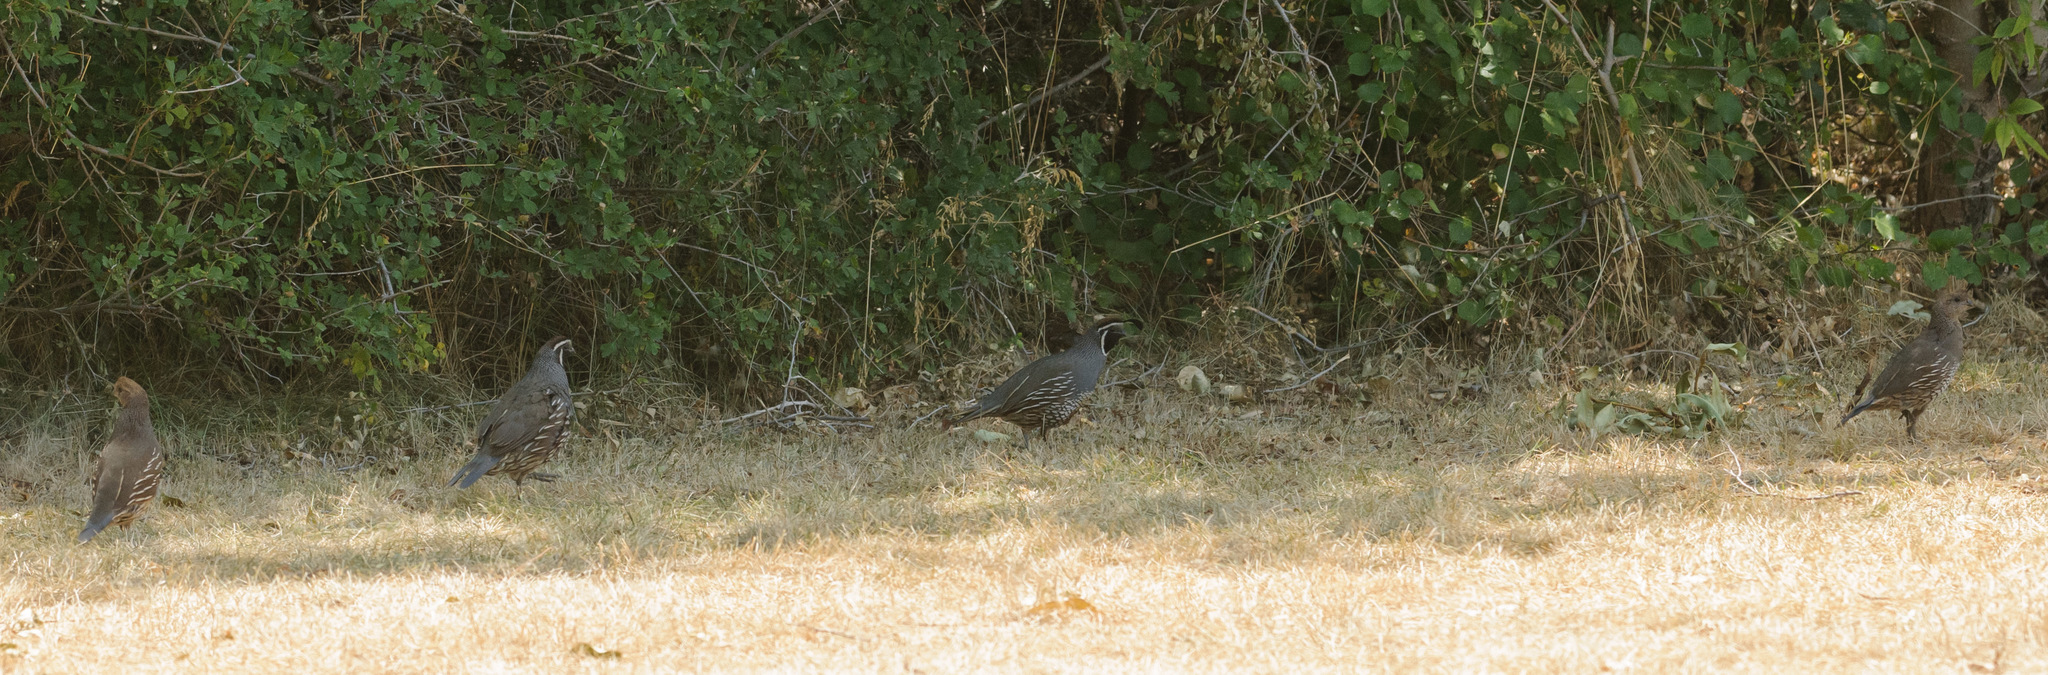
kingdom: Animalia
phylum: Chordata
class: Aves
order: Galliformes
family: Odontophoridae
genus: Callipepla
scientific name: Callipepla californica
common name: California quail
